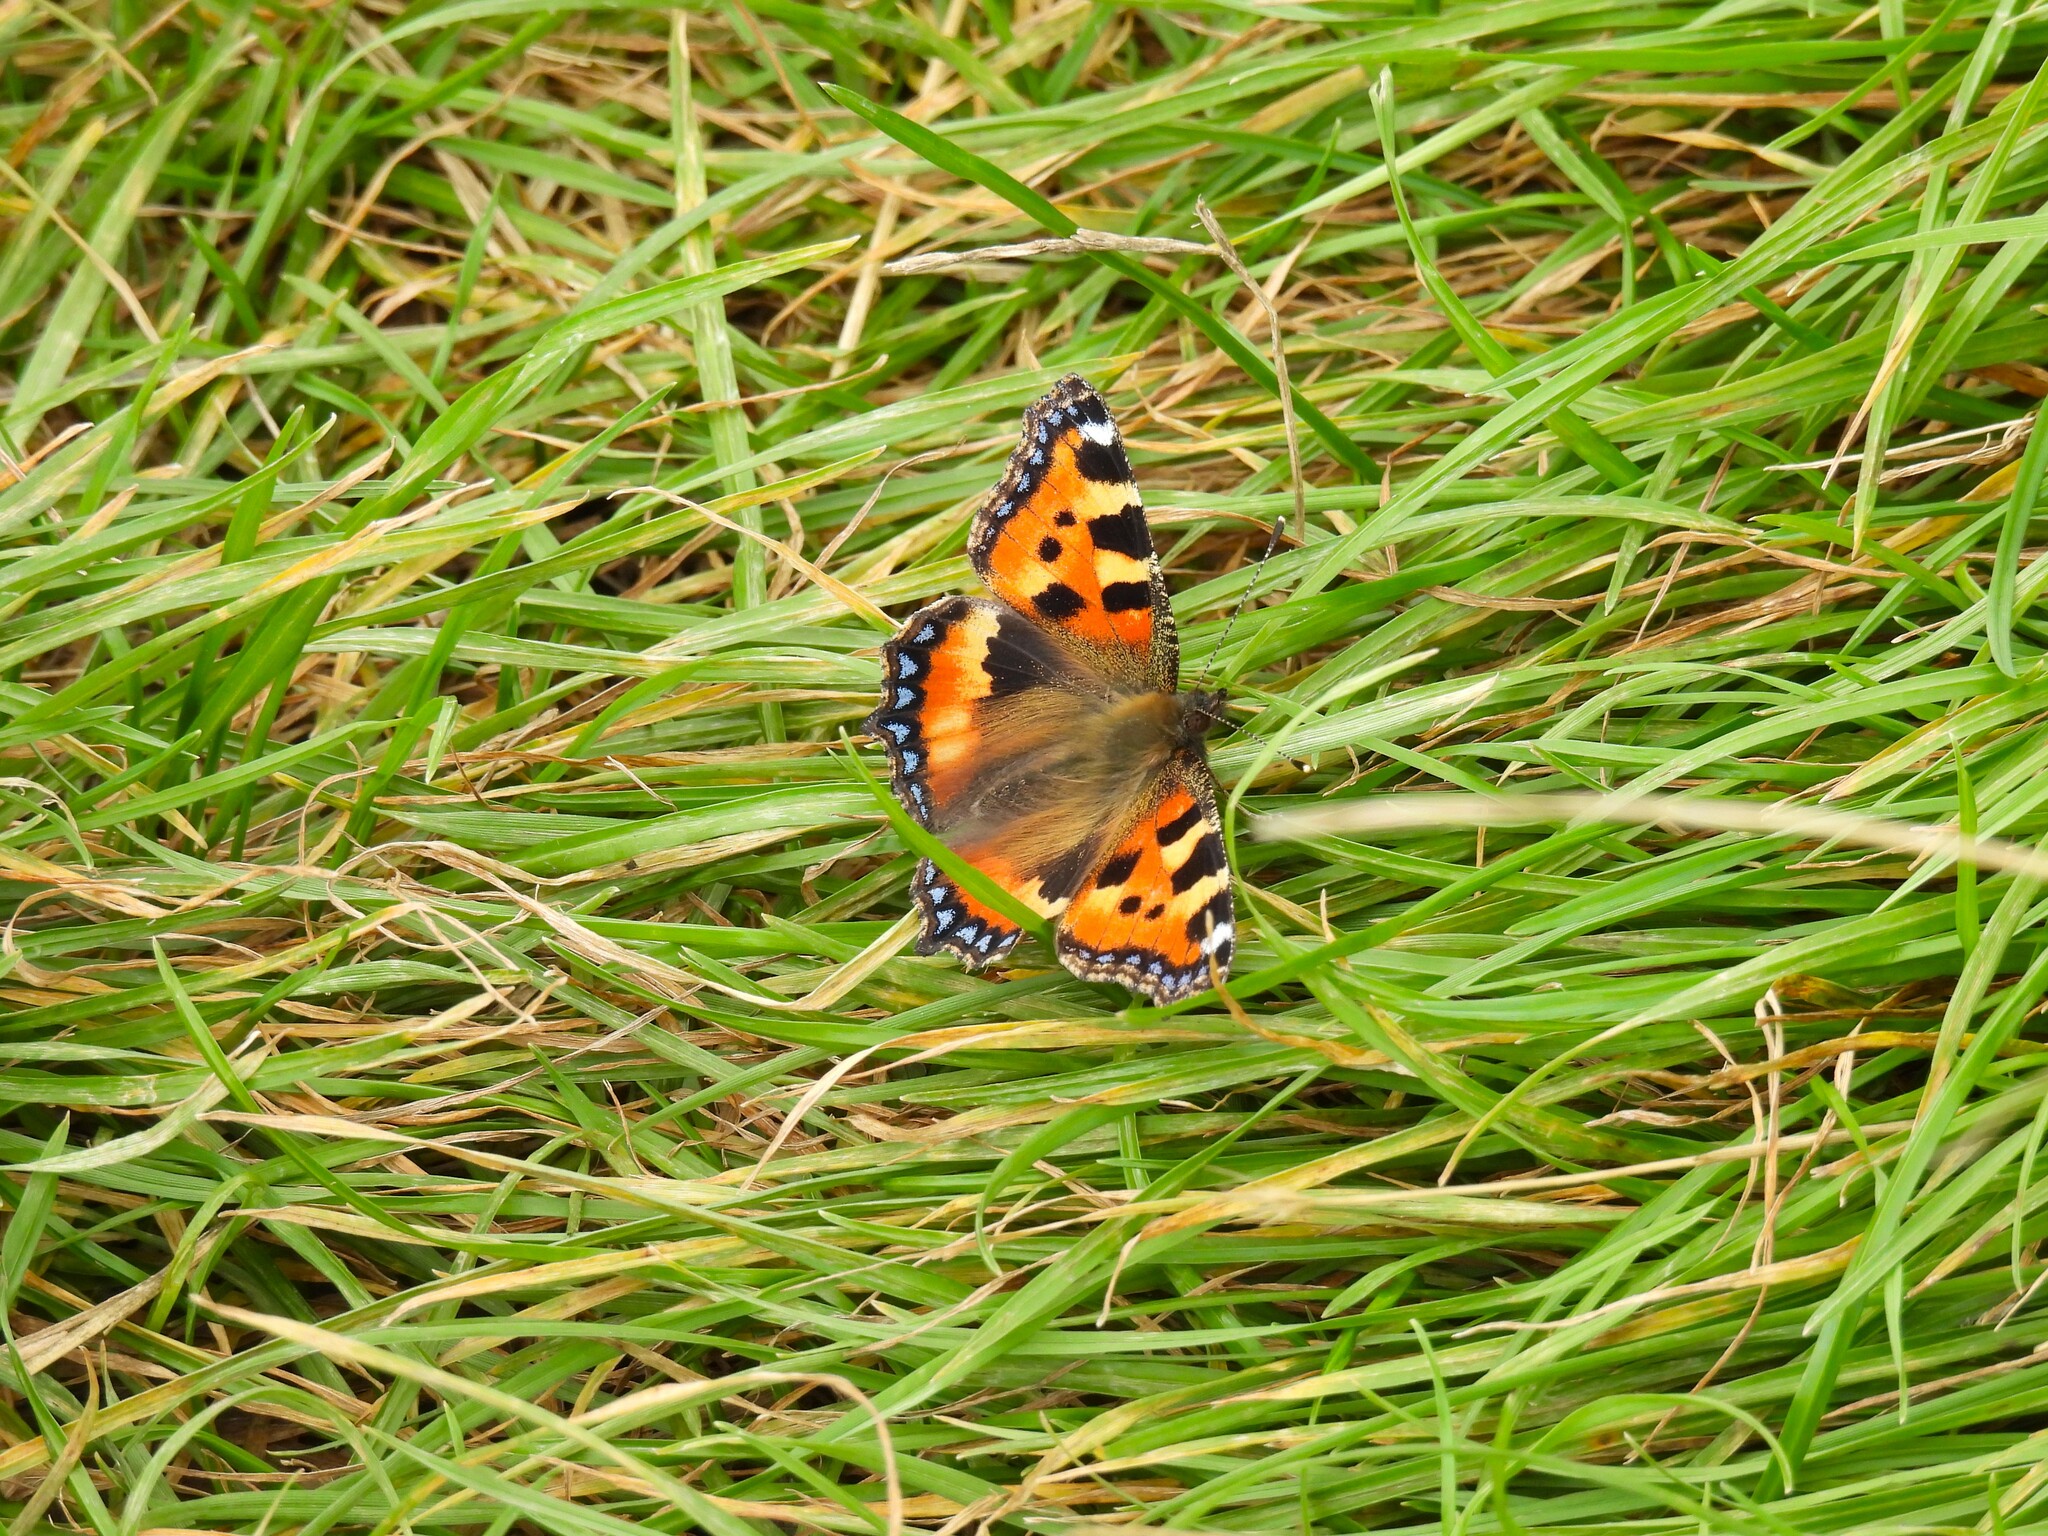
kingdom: Animalia
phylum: Arthropoda
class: Insecta
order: Lepidoptera
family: Nymphalidae
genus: Aglais
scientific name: Aglais urticae
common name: Small tortoiseshell
